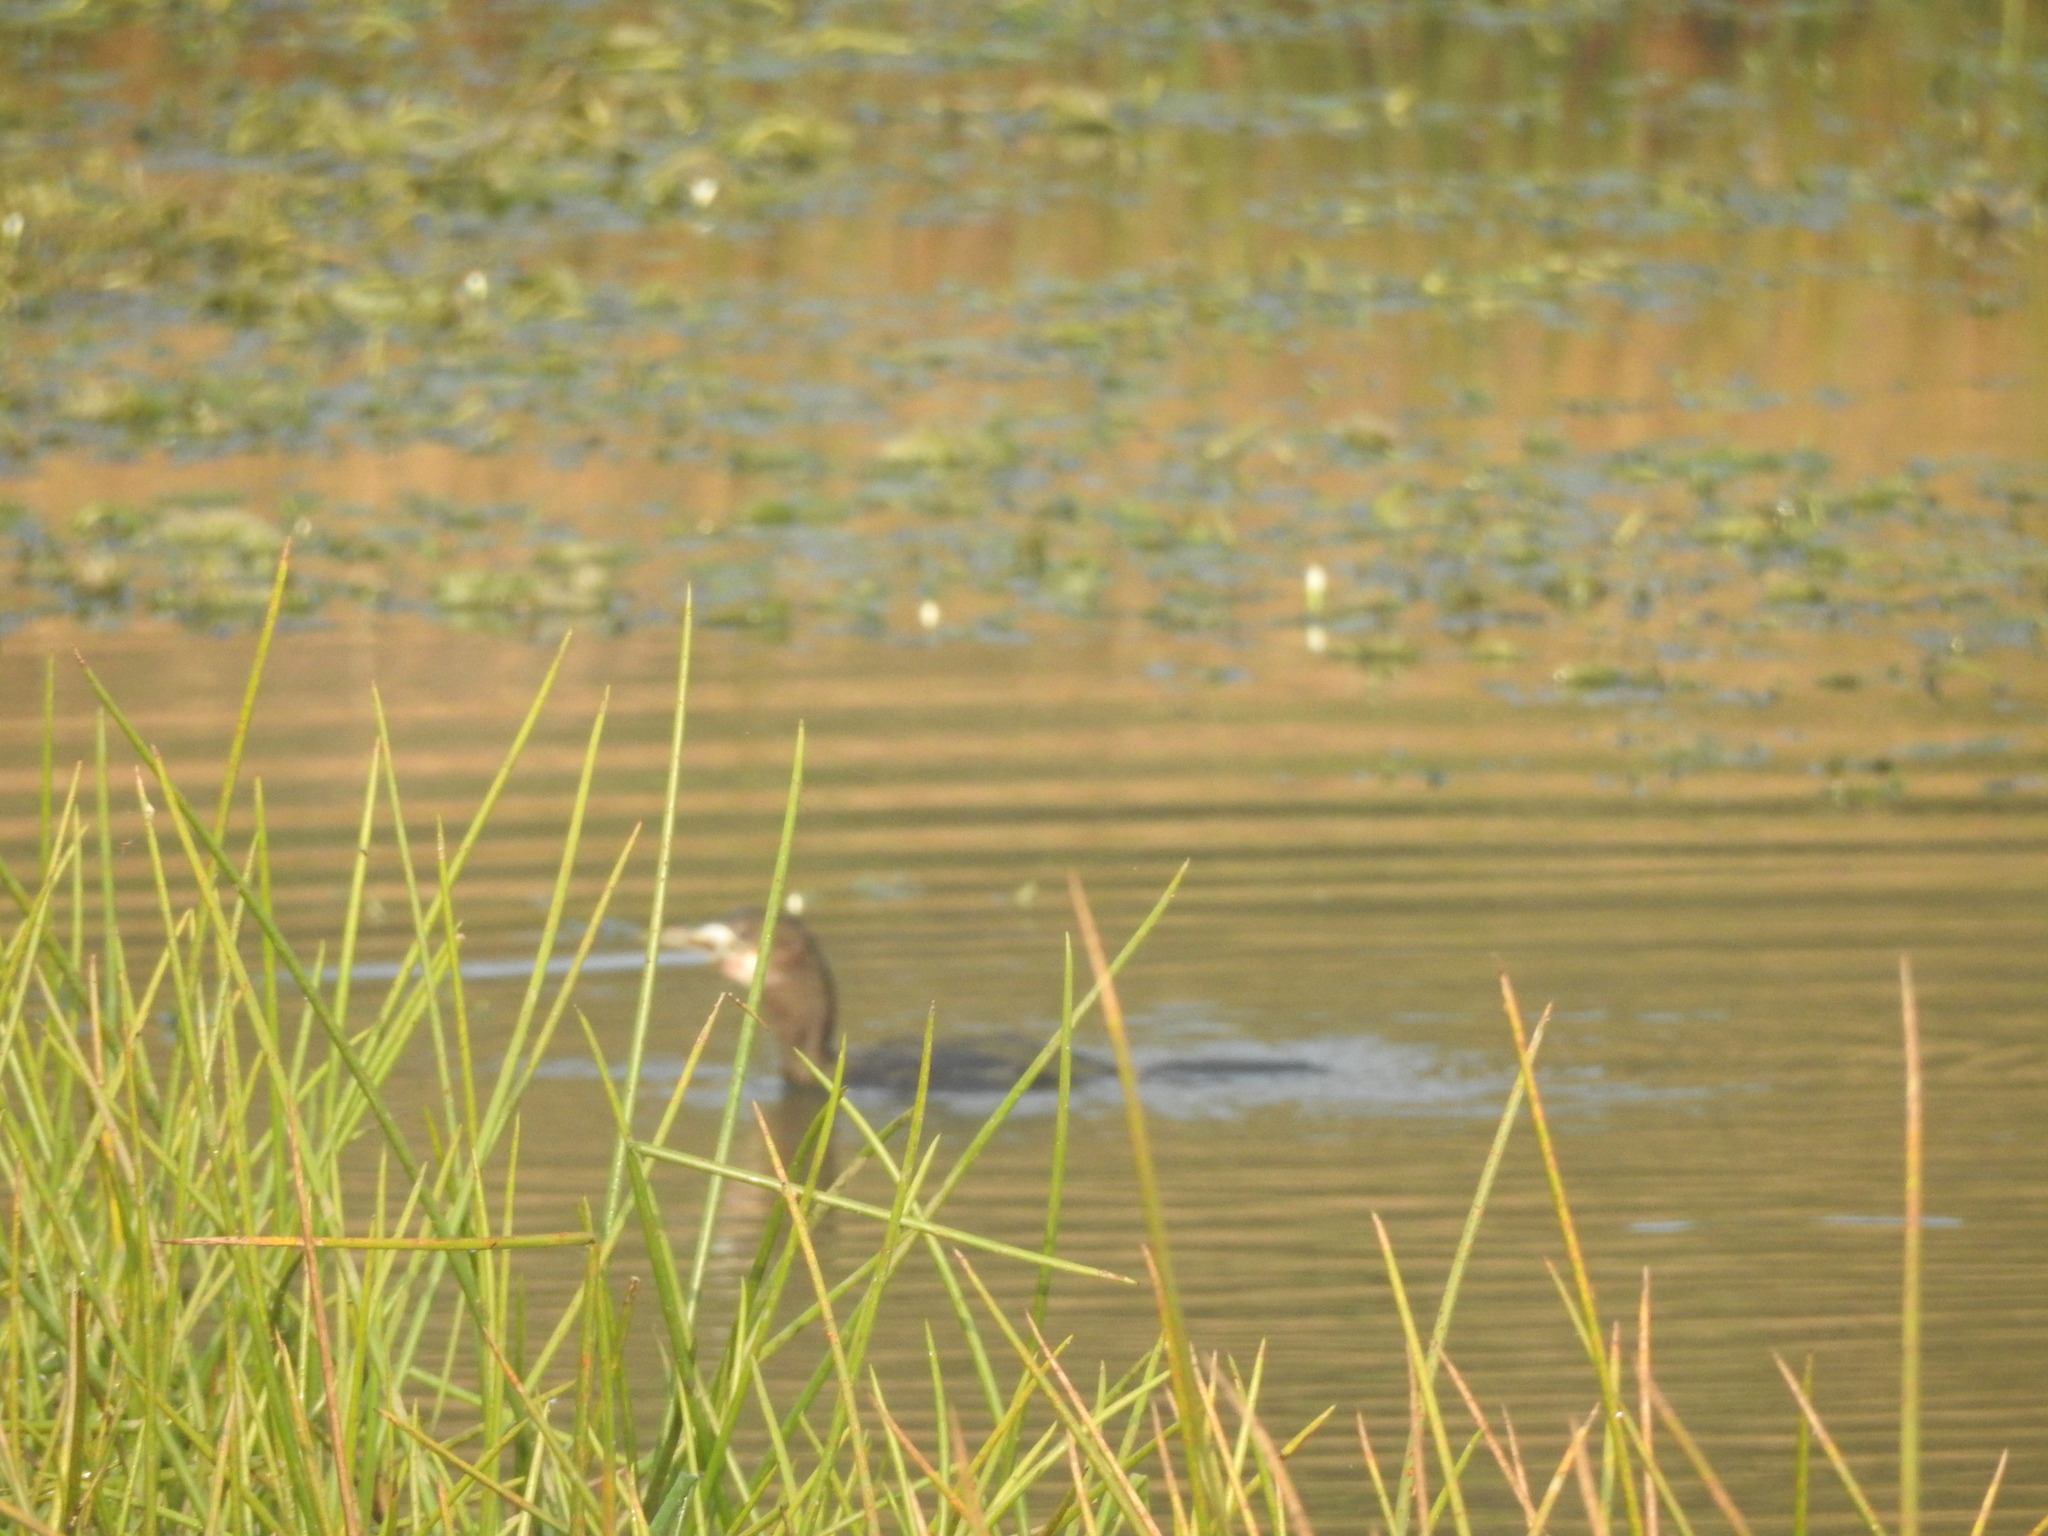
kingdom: Animalia
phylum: Chordata
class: Aves
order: Suliformes
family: Phalacrocoracidae
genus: Microcarbo
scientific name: Microcarbo niger
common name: Little cormorant
